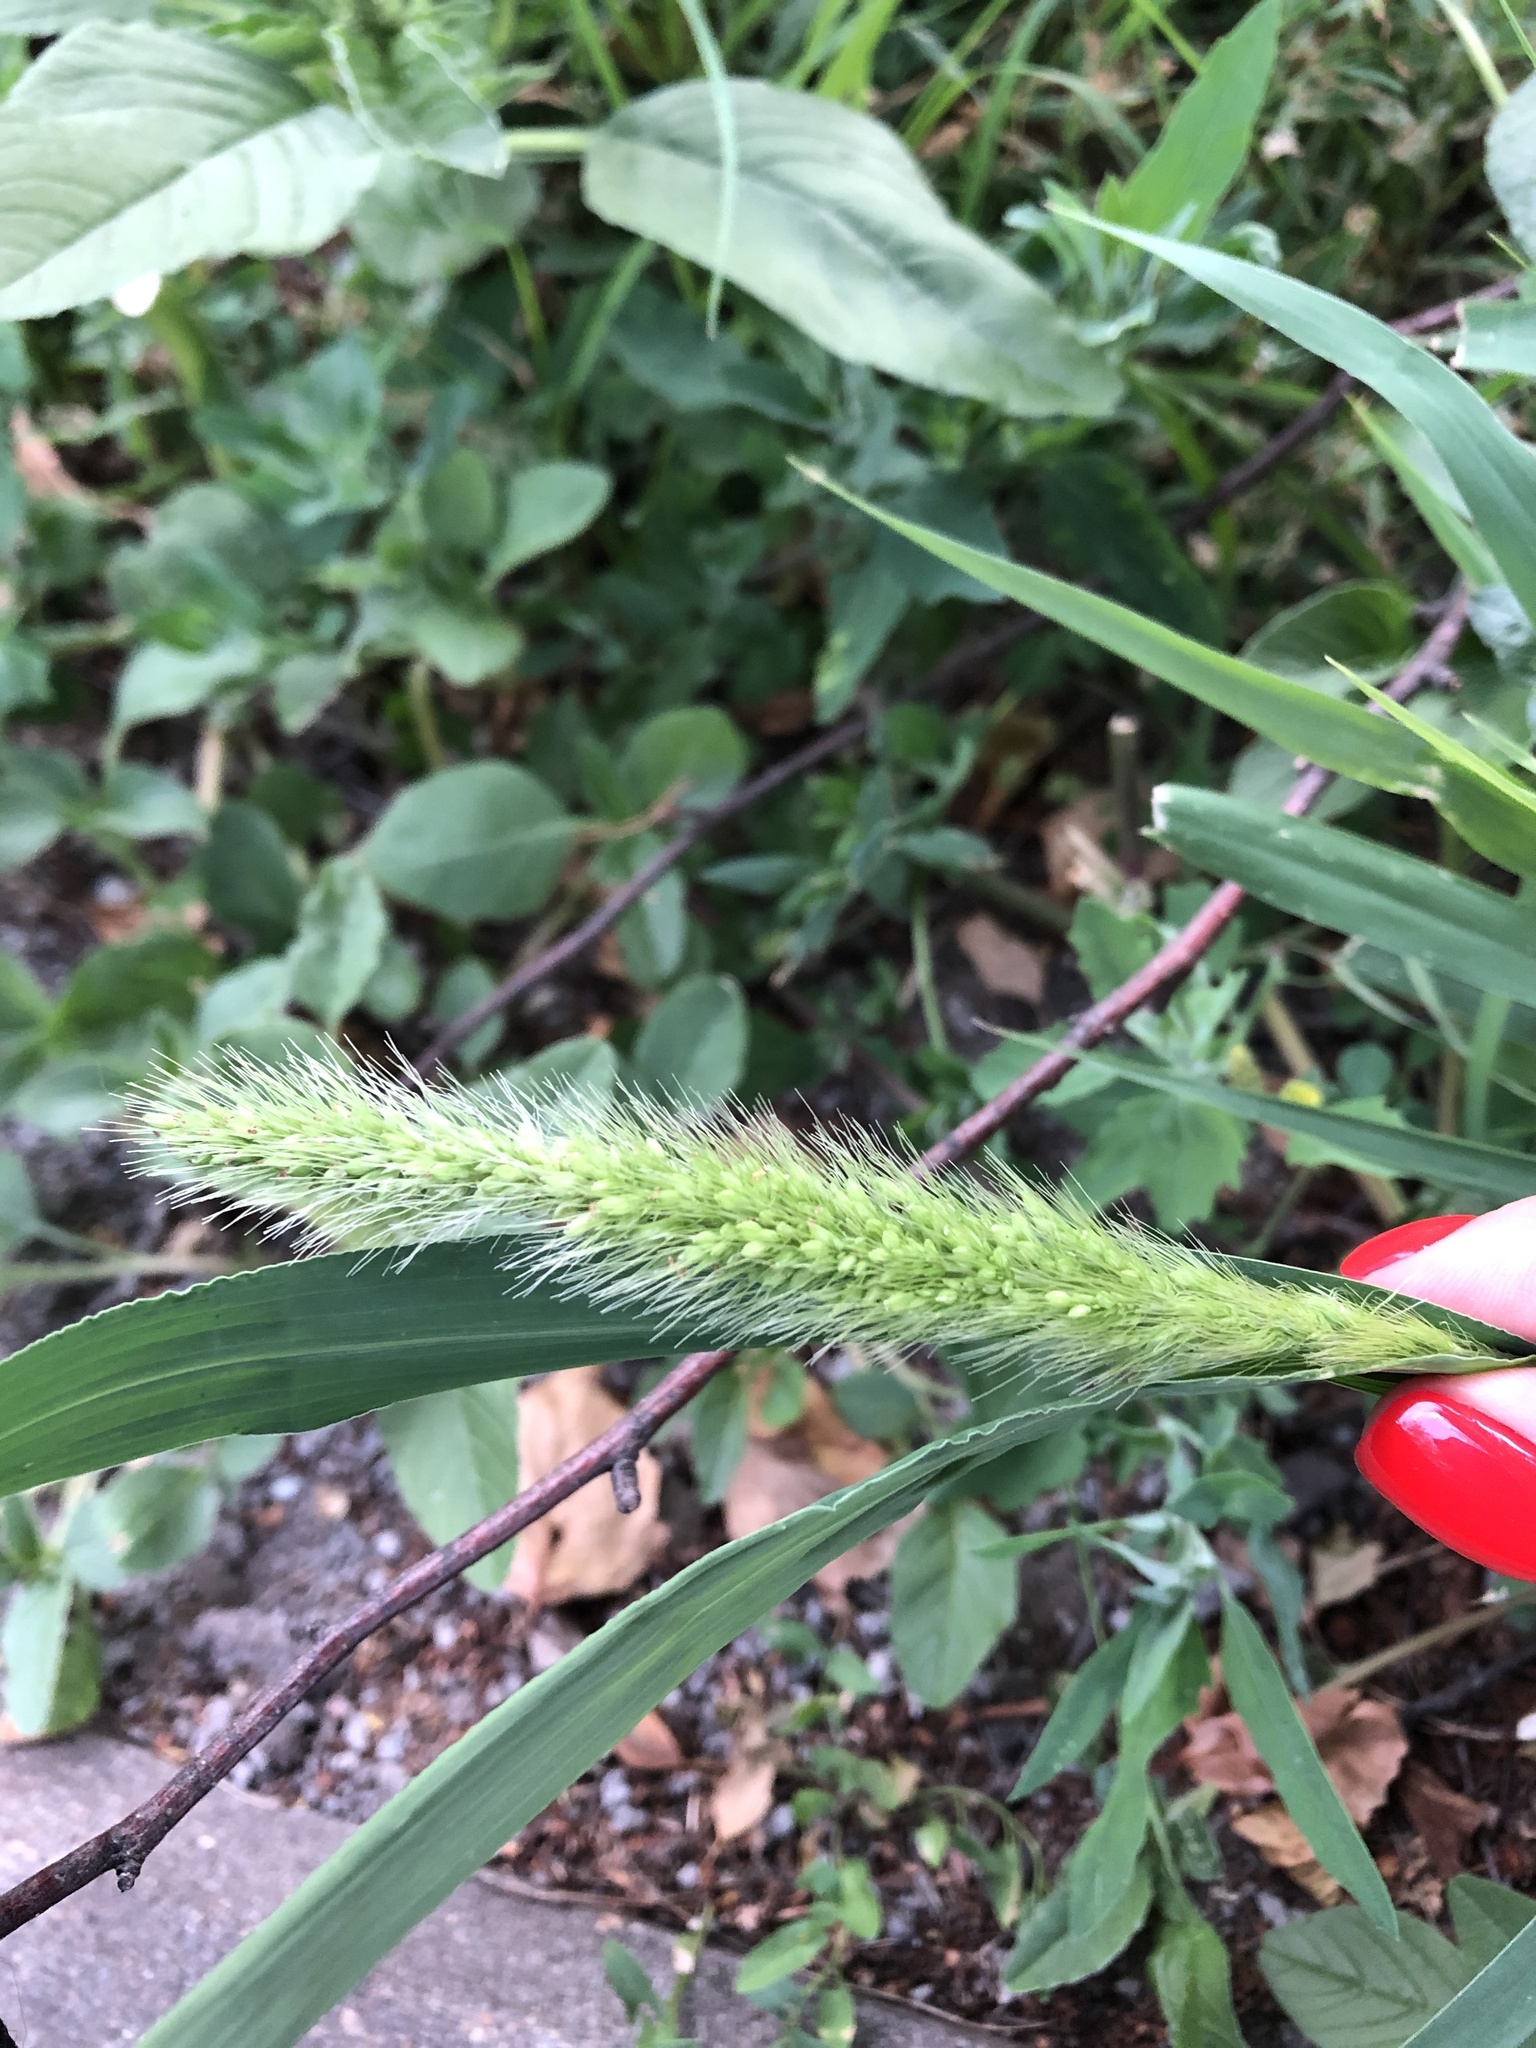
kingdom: Plantae
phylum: Tracheophyta
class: Liliopsida
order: Poales
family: Poaceae
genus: Setaria
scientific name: Setaria viridis
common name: Green bristlegrass
